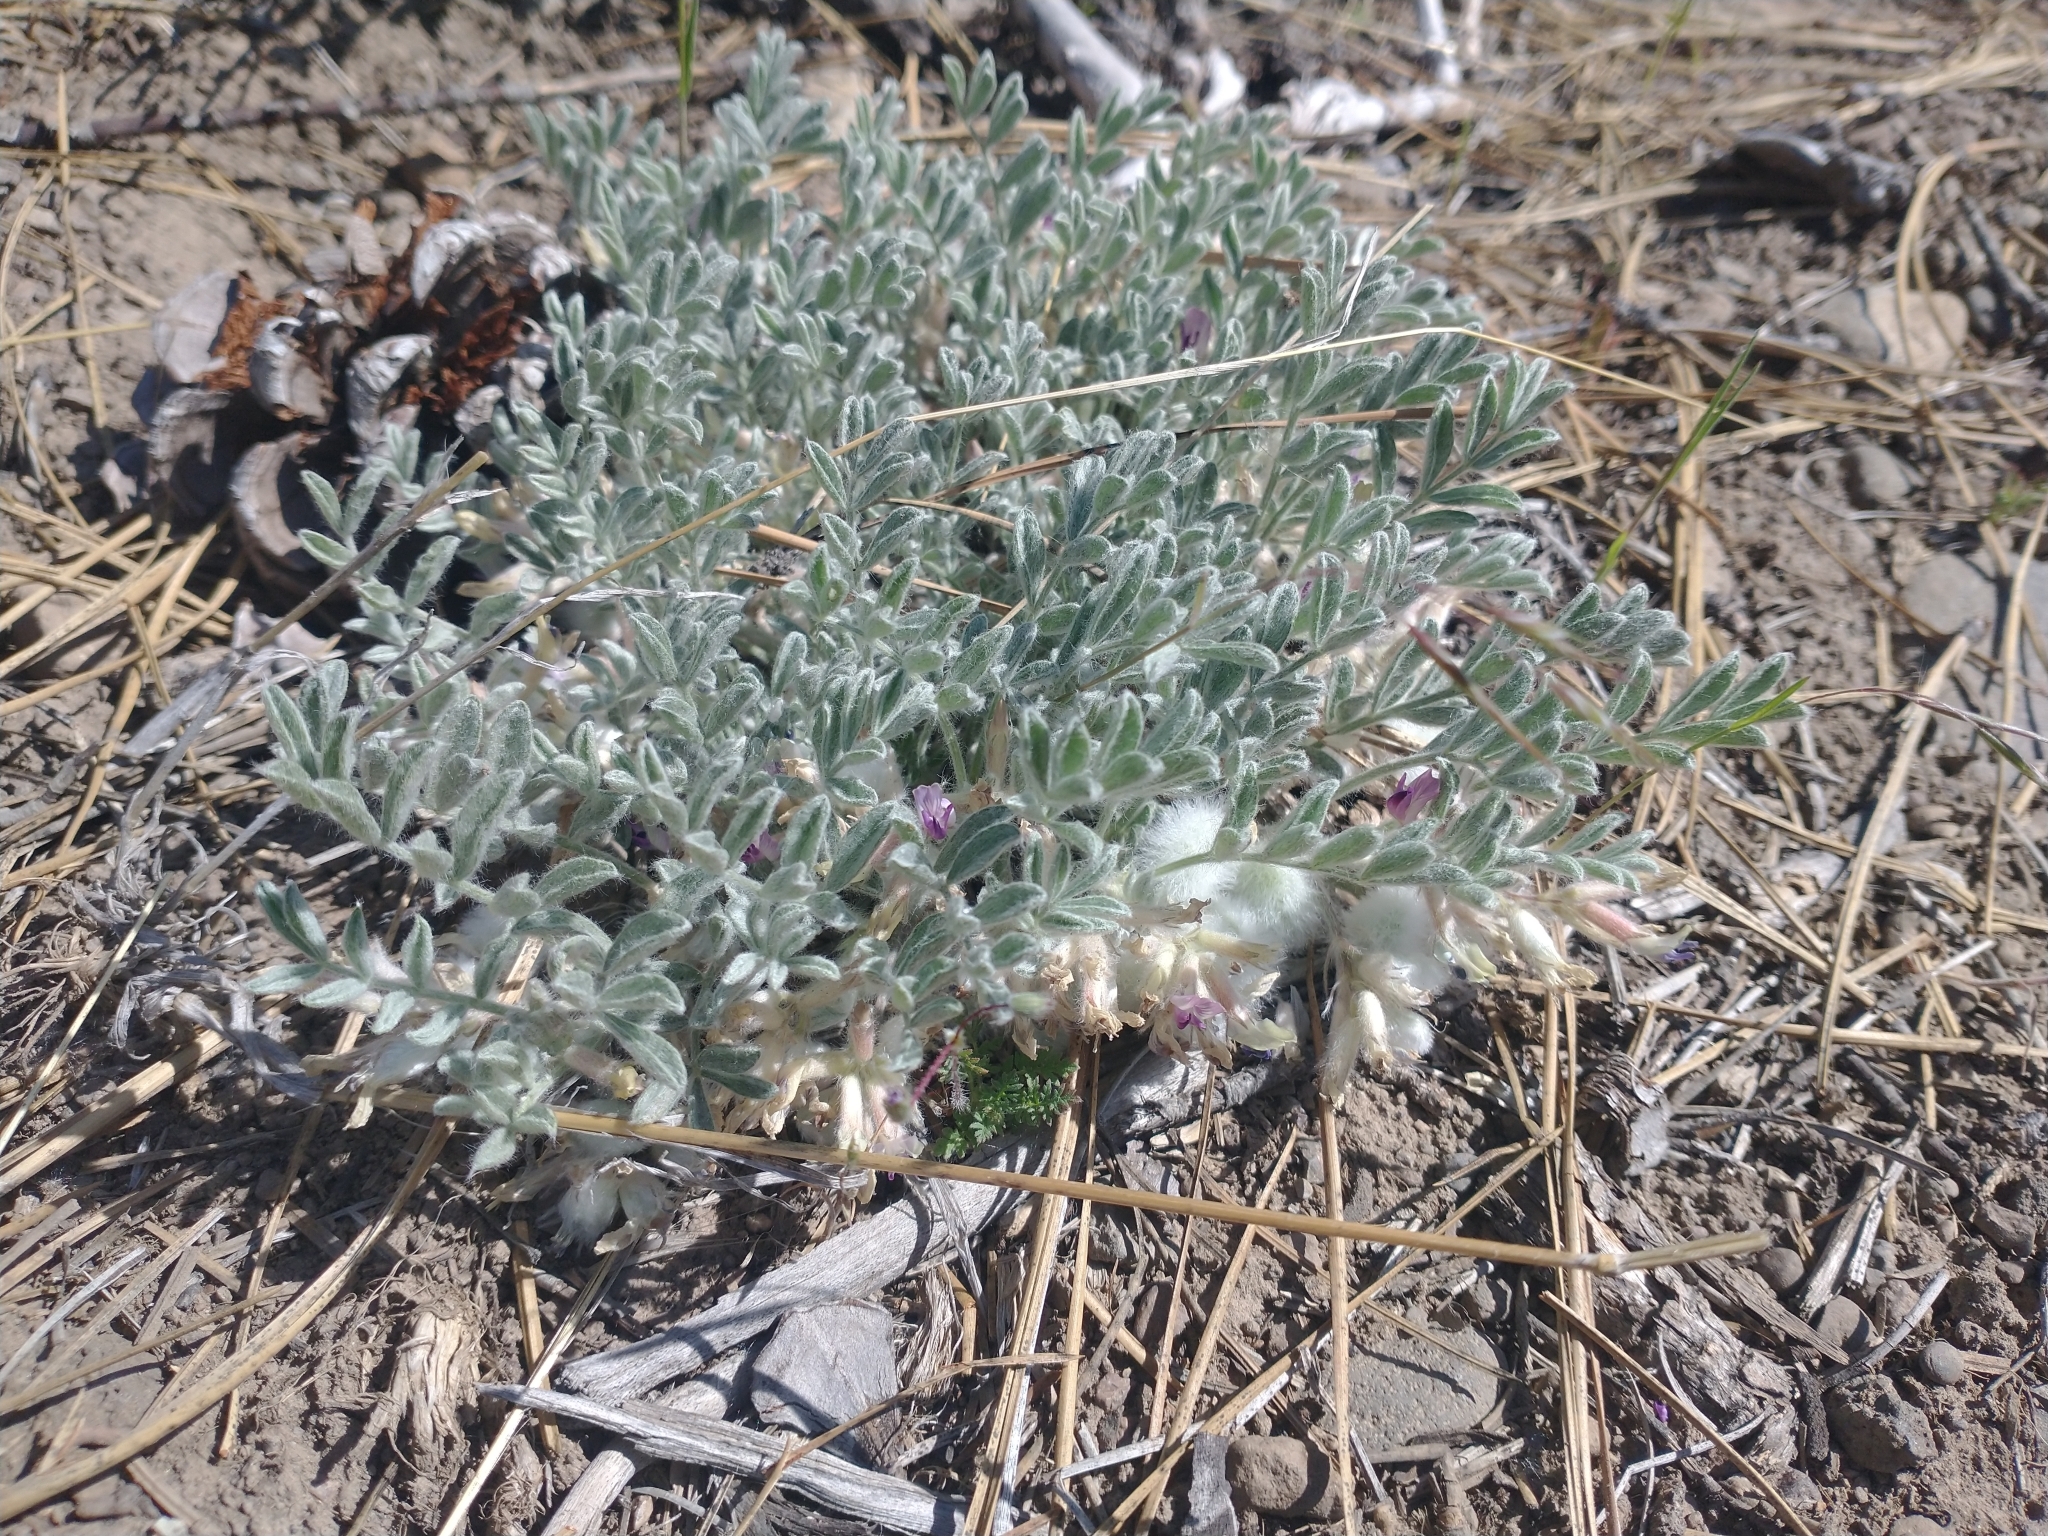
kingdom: Plantae
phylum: Tracheophyta
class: Magnoliopsida
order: Fabales
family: Fabaceae
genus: Astragalus
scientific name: Astragalus purshii
